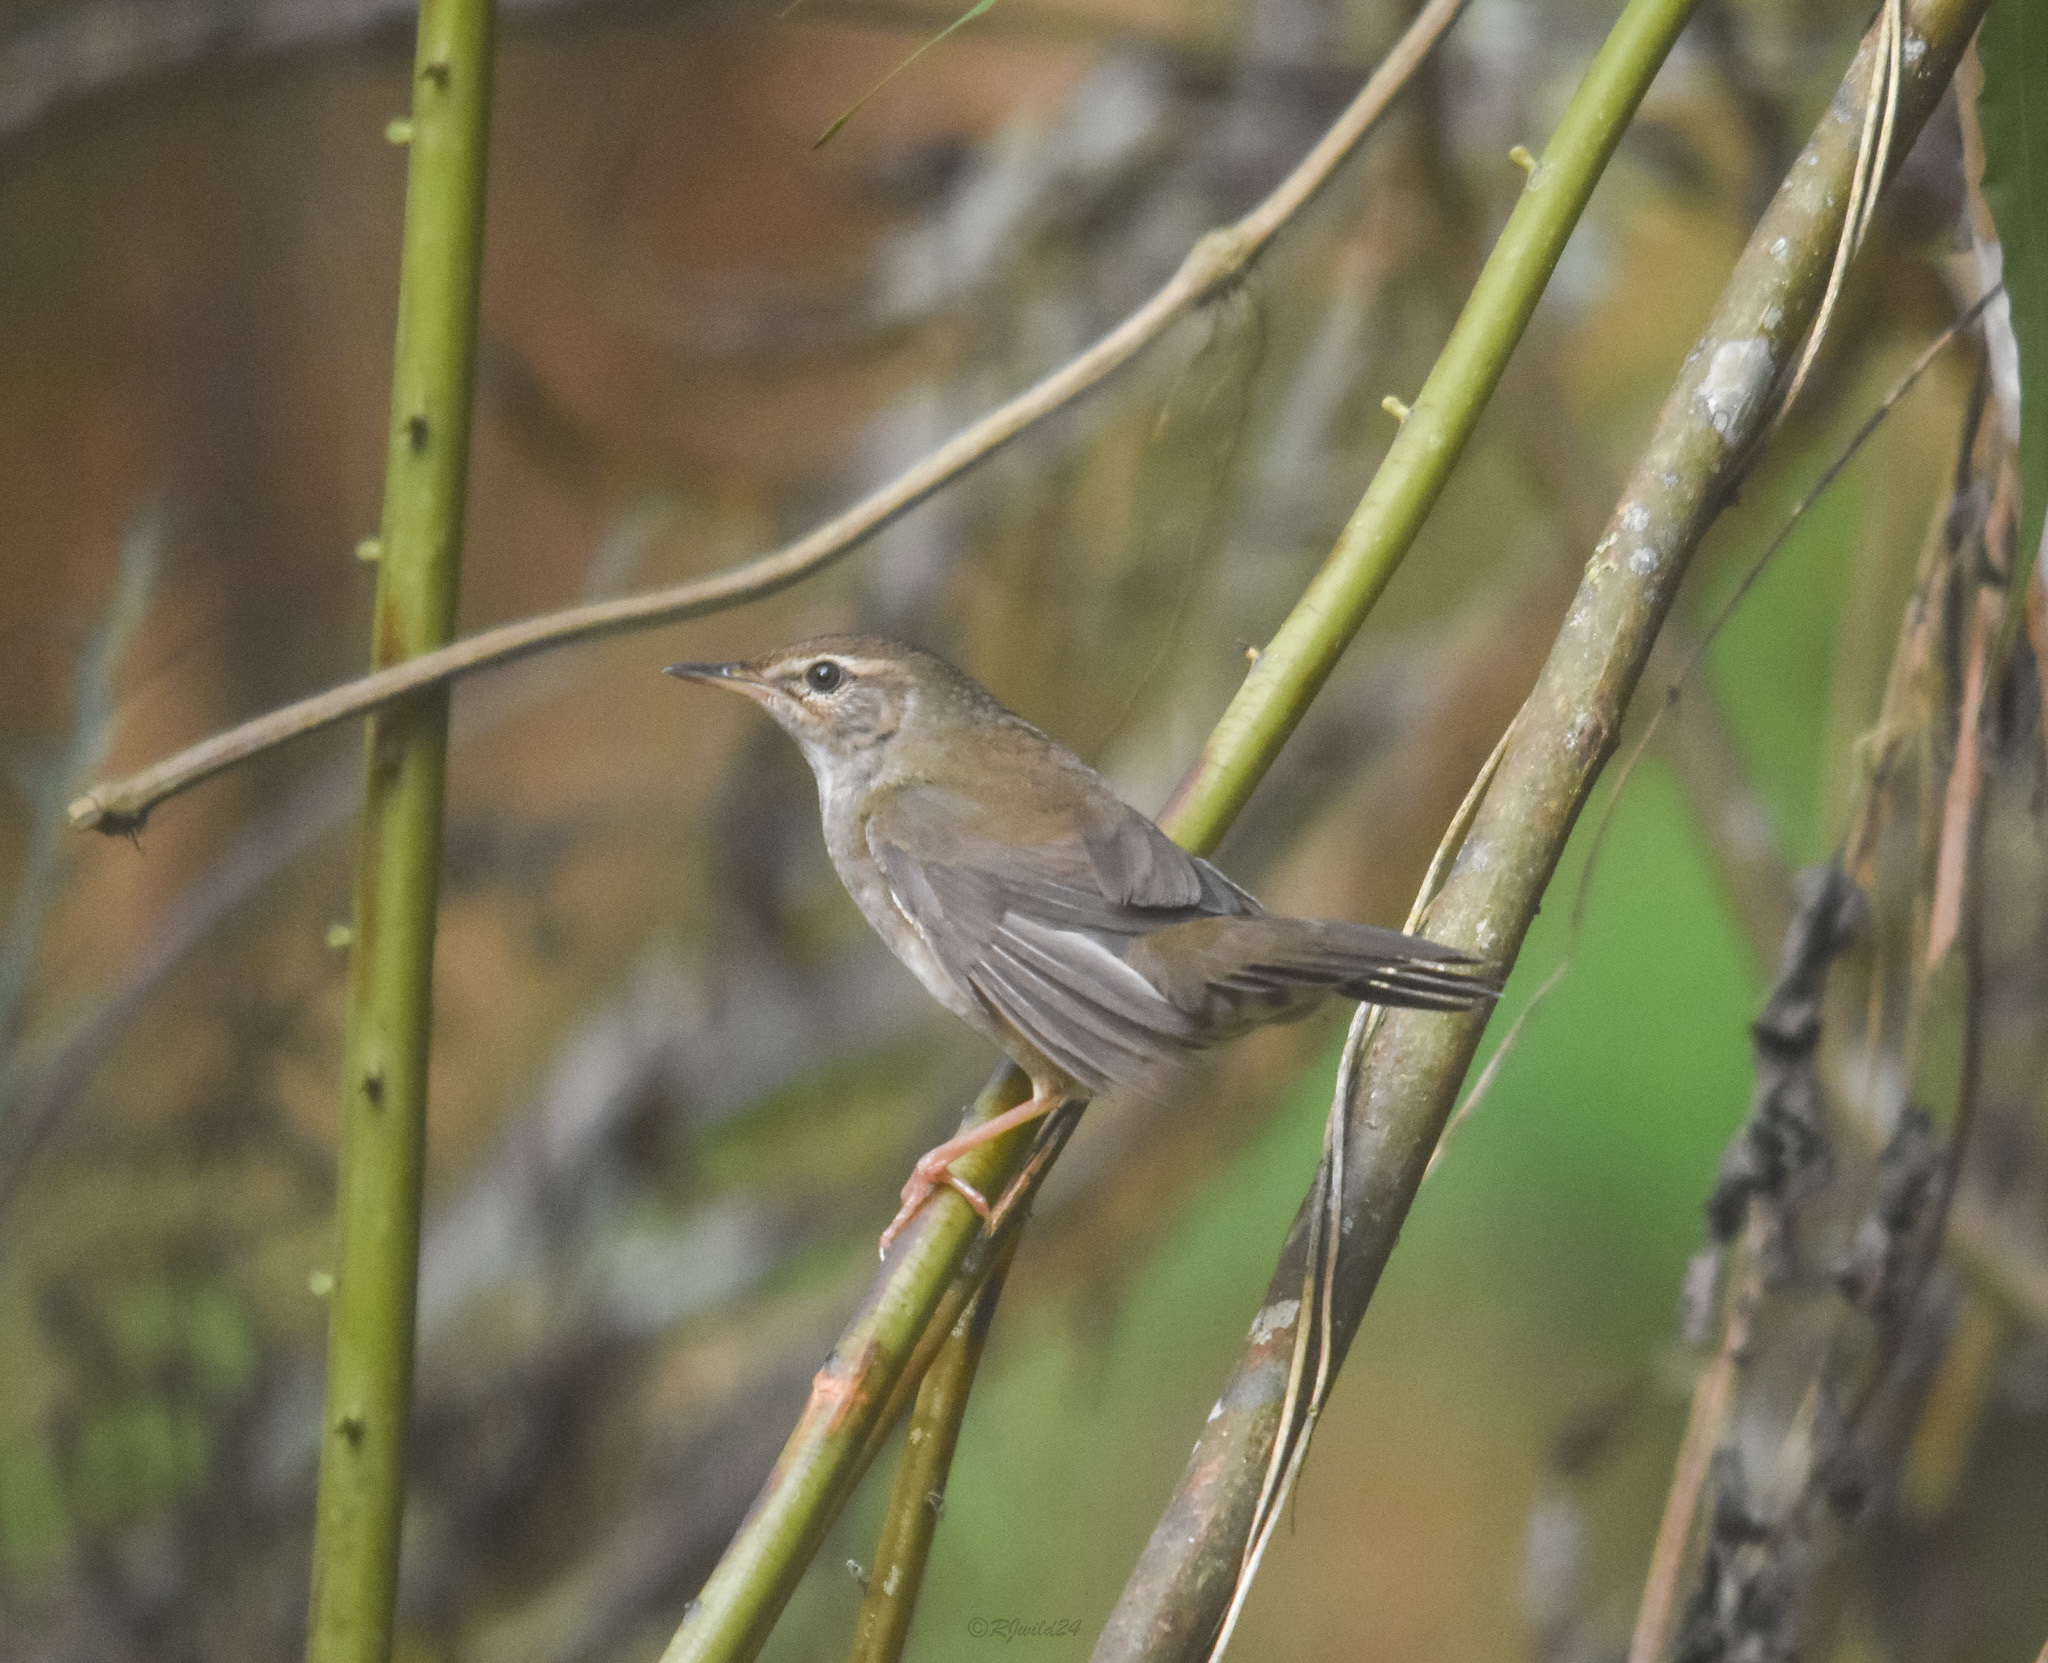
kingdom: Animalia
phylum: Chordata
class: Aves
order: Passeriformes
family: Locustellidae
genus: Locustella
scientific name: Locustella davidi
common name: Baikal bush warbler
